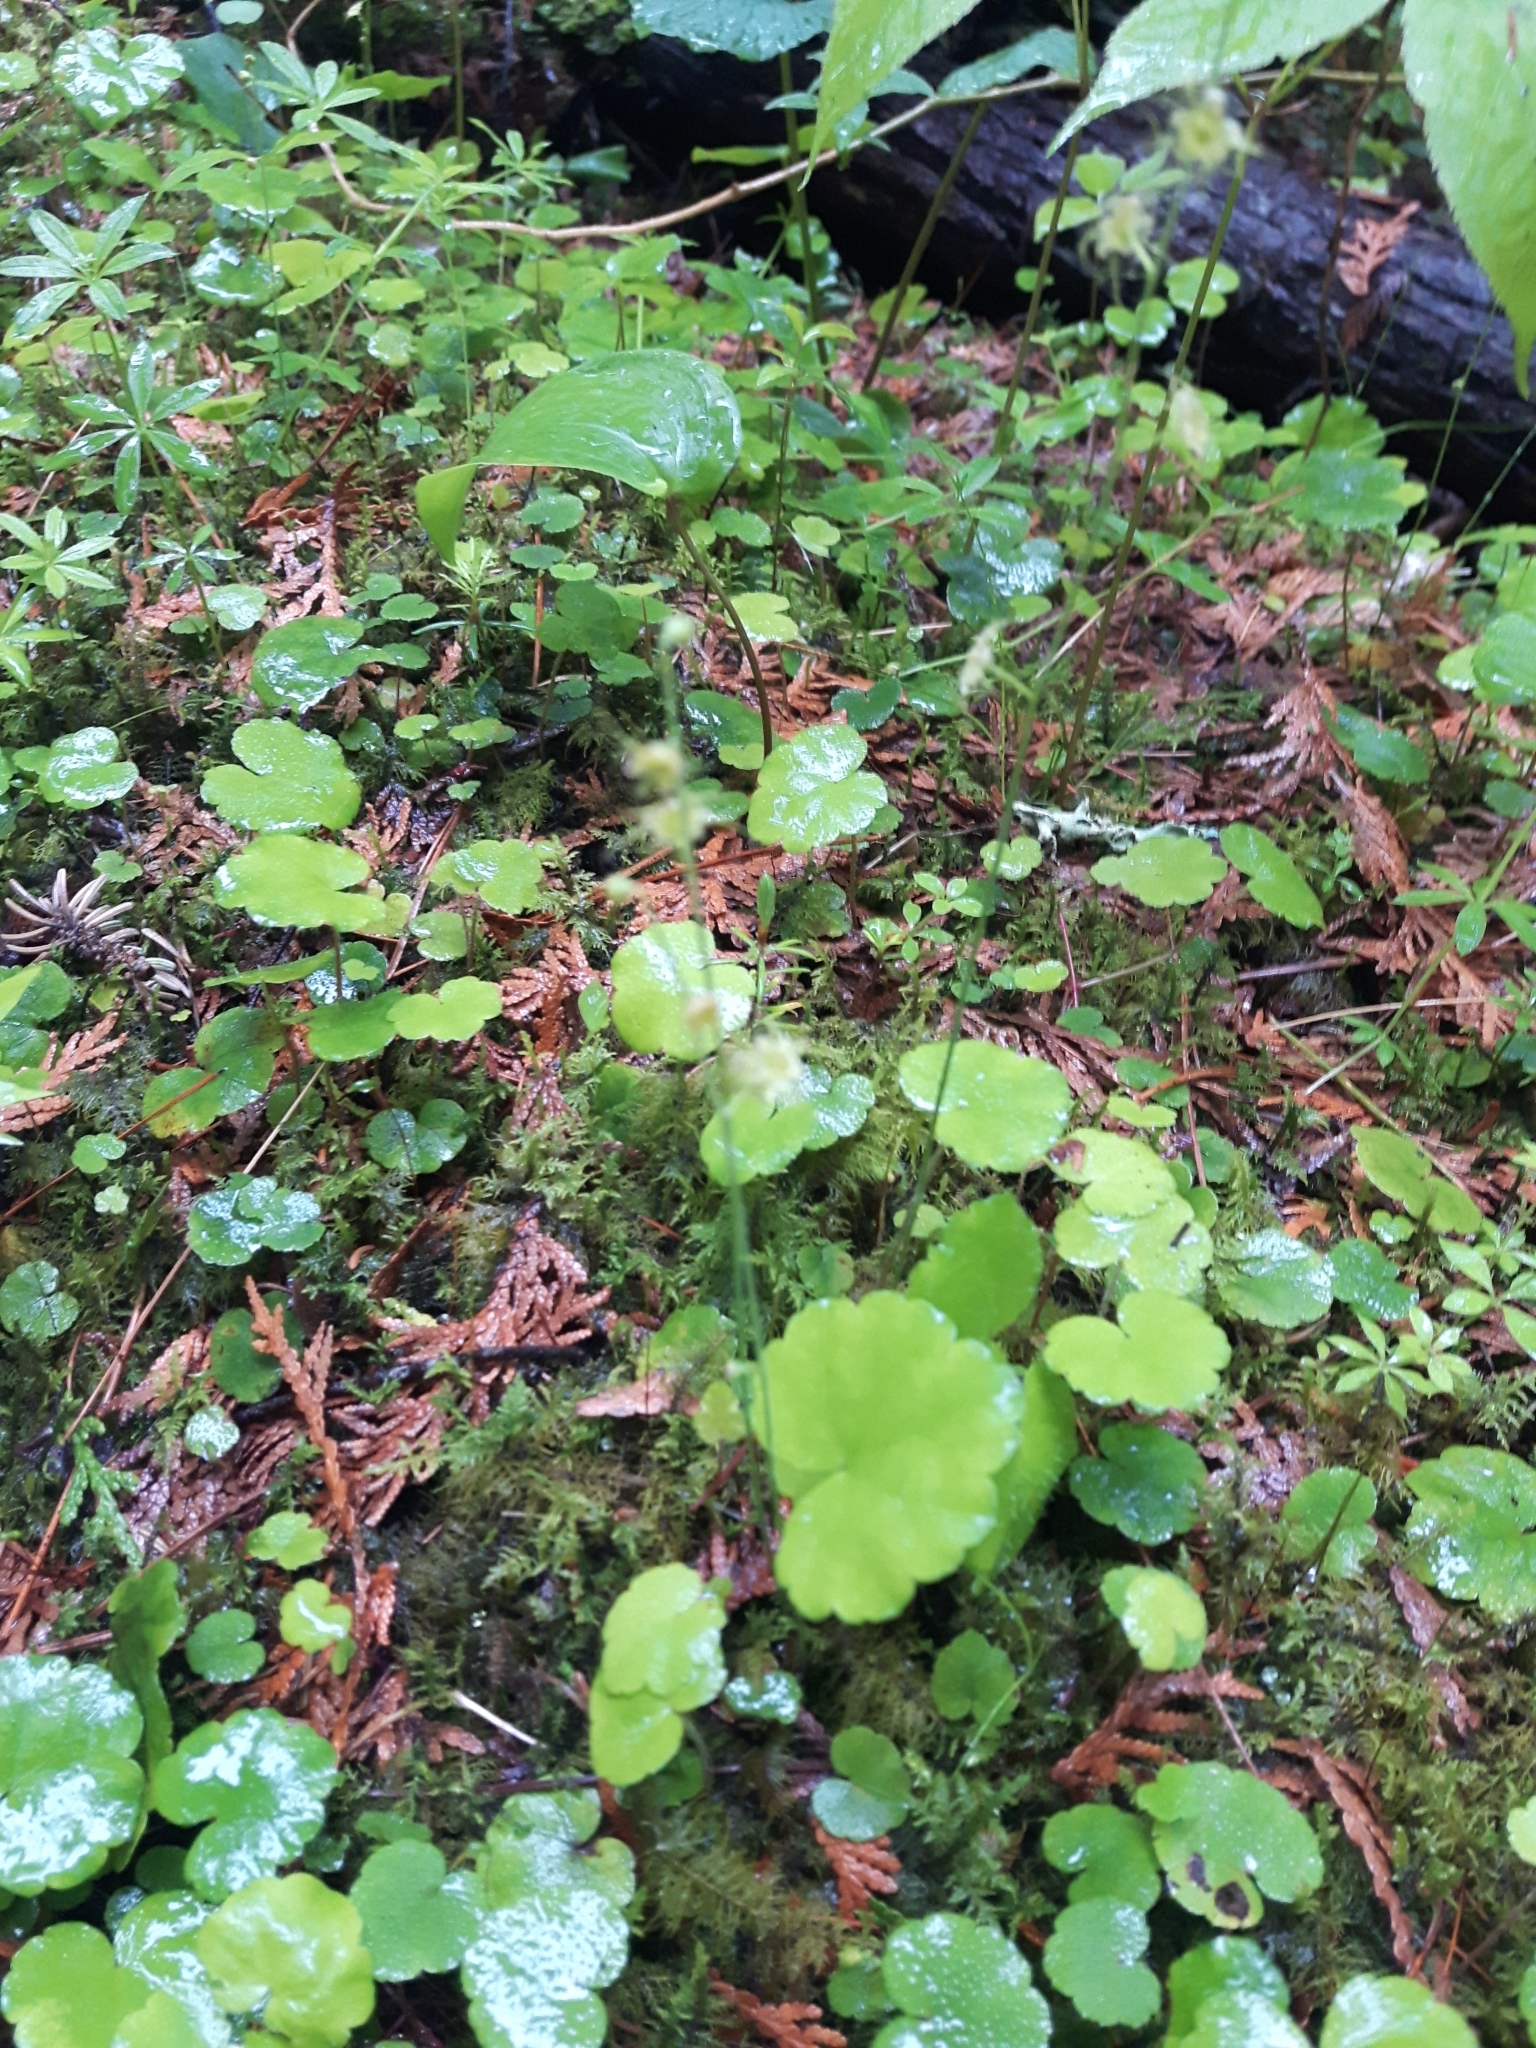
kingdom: Plantae
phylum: Tracheophyta
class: Magnoliopsida
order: Saxifragales
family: Saxifragaceae
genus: Mitella
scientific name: Mitella nuda
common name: Bare-stemmed bishop's-cap
